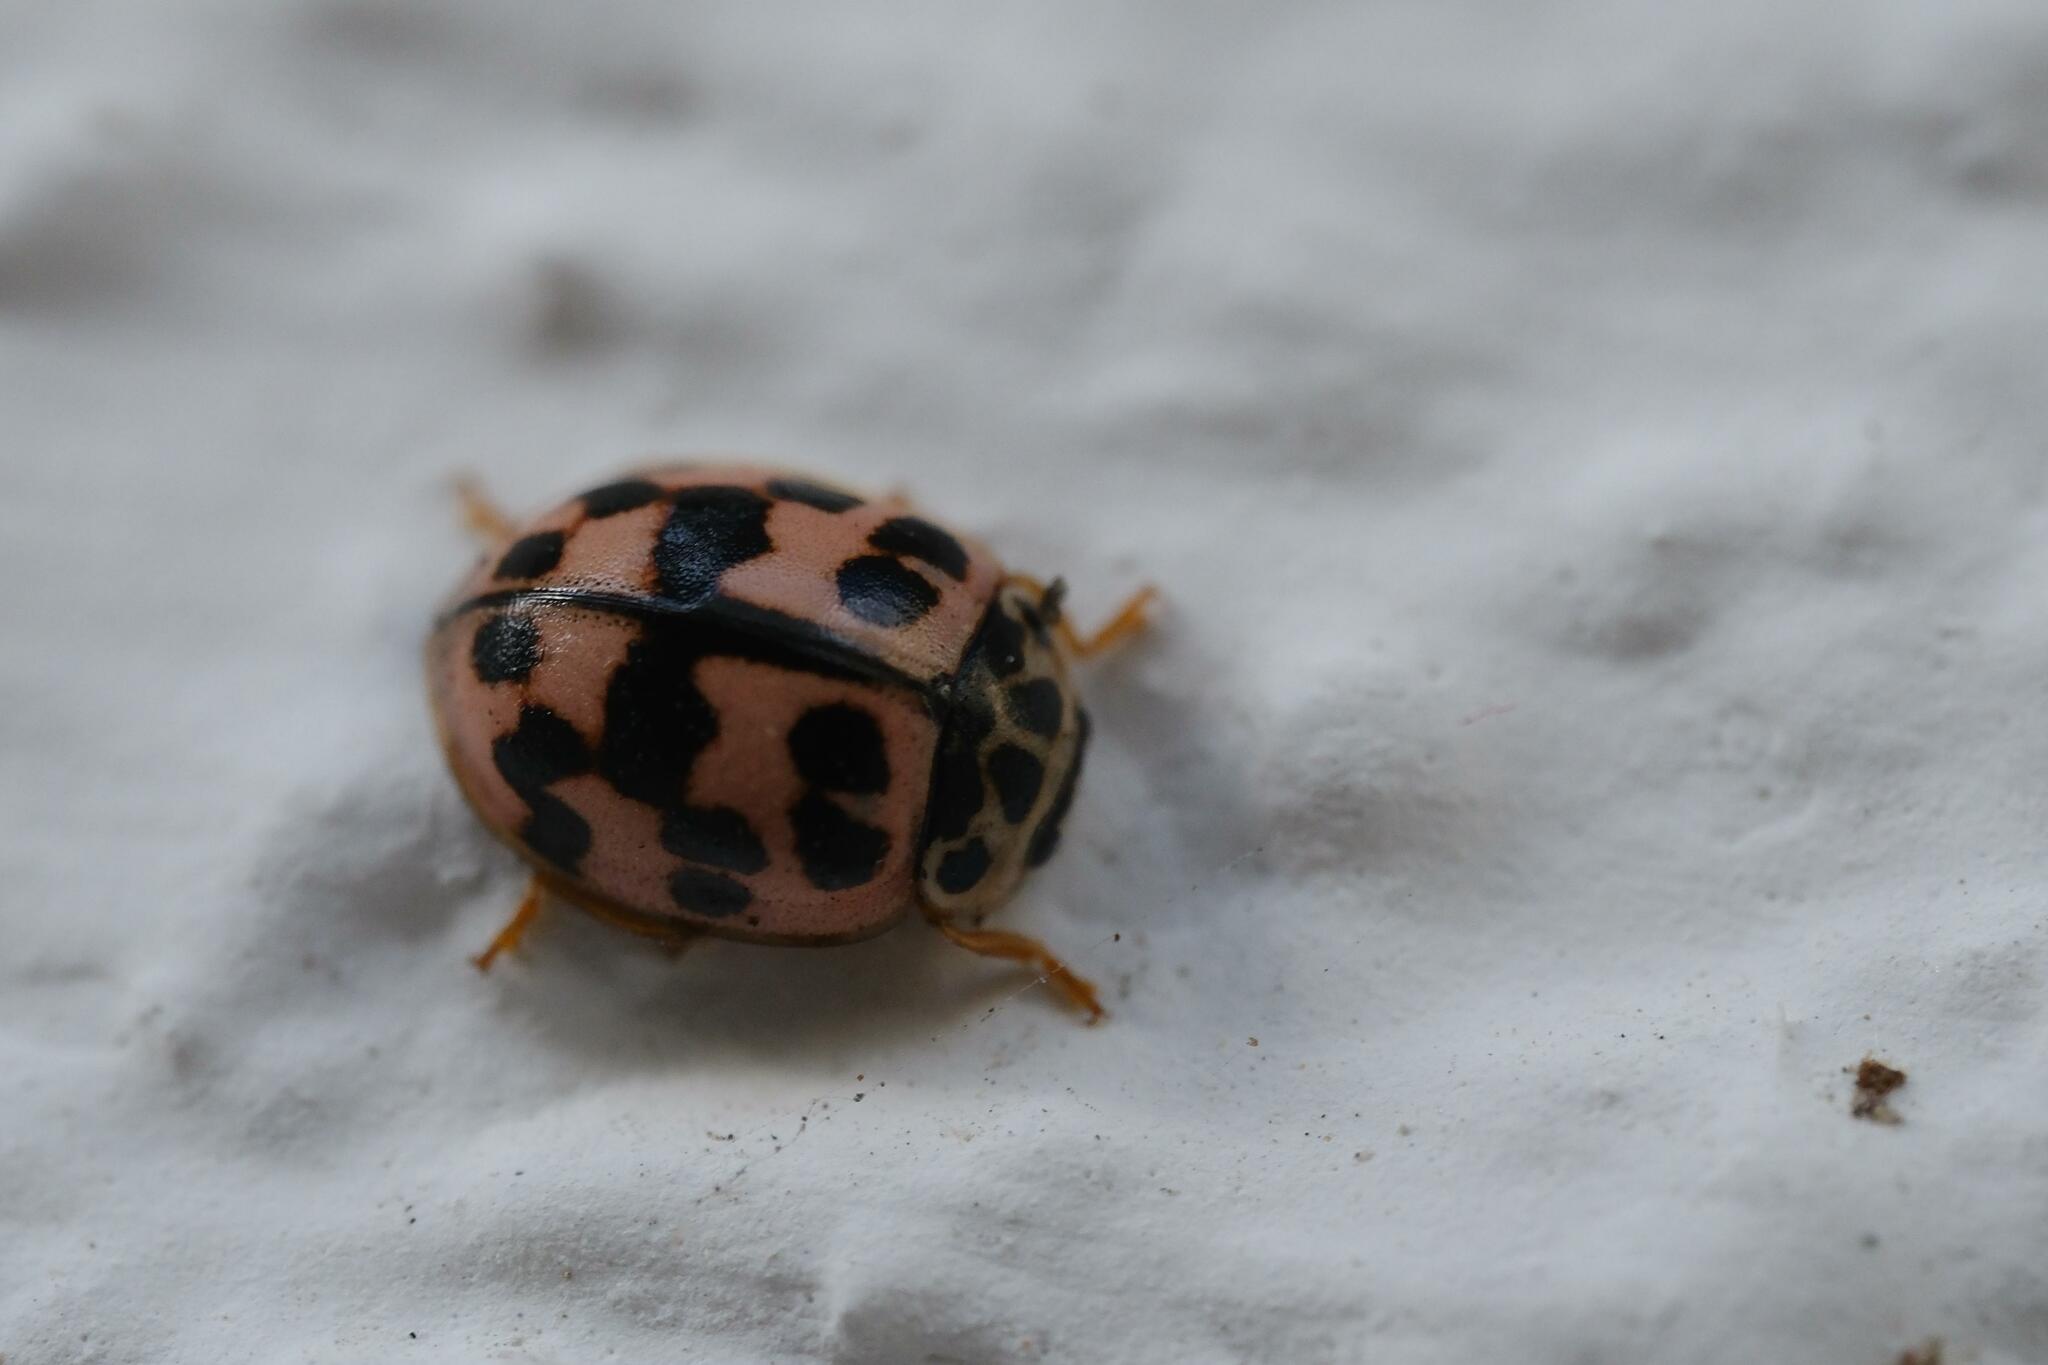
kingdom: Animalia
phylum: Arthropoda
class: Insecta
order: Coleoptera
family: Coccinellidae
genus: Oenopia
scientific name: Oenopia conglobata
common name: Ladybird beetle
